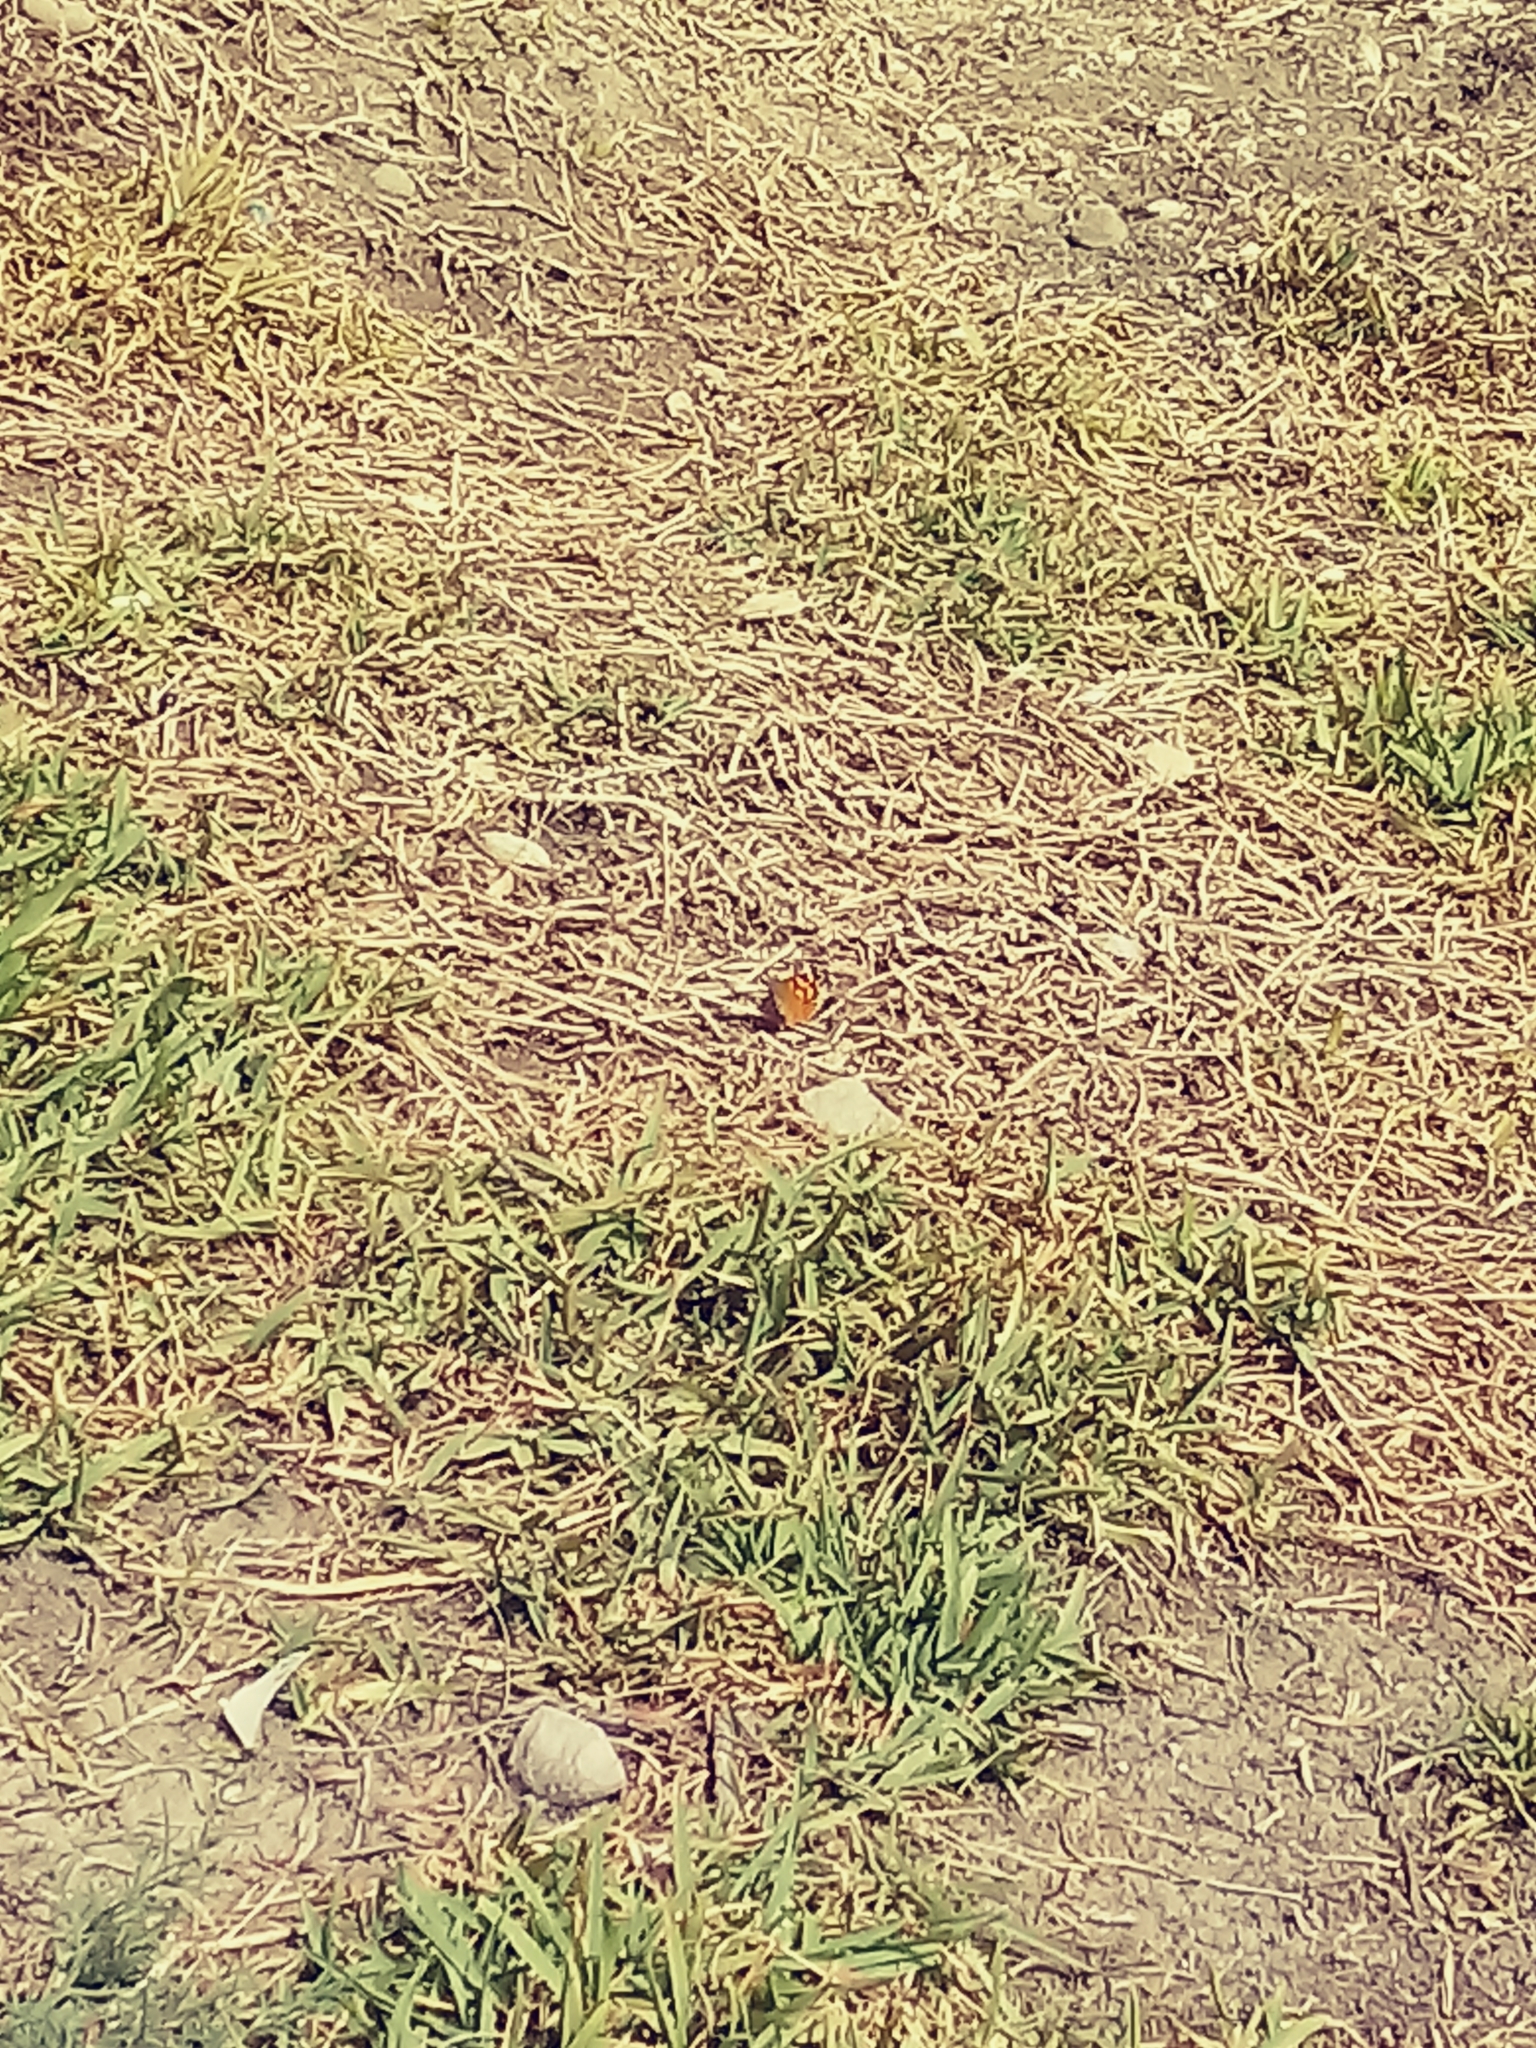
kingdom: Animalia
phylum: Arthropoda
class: Insecta
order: Lepidoptera
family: Nymphalidae
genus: Vanessa
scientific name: Vanessa annabella
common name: West coast lady
